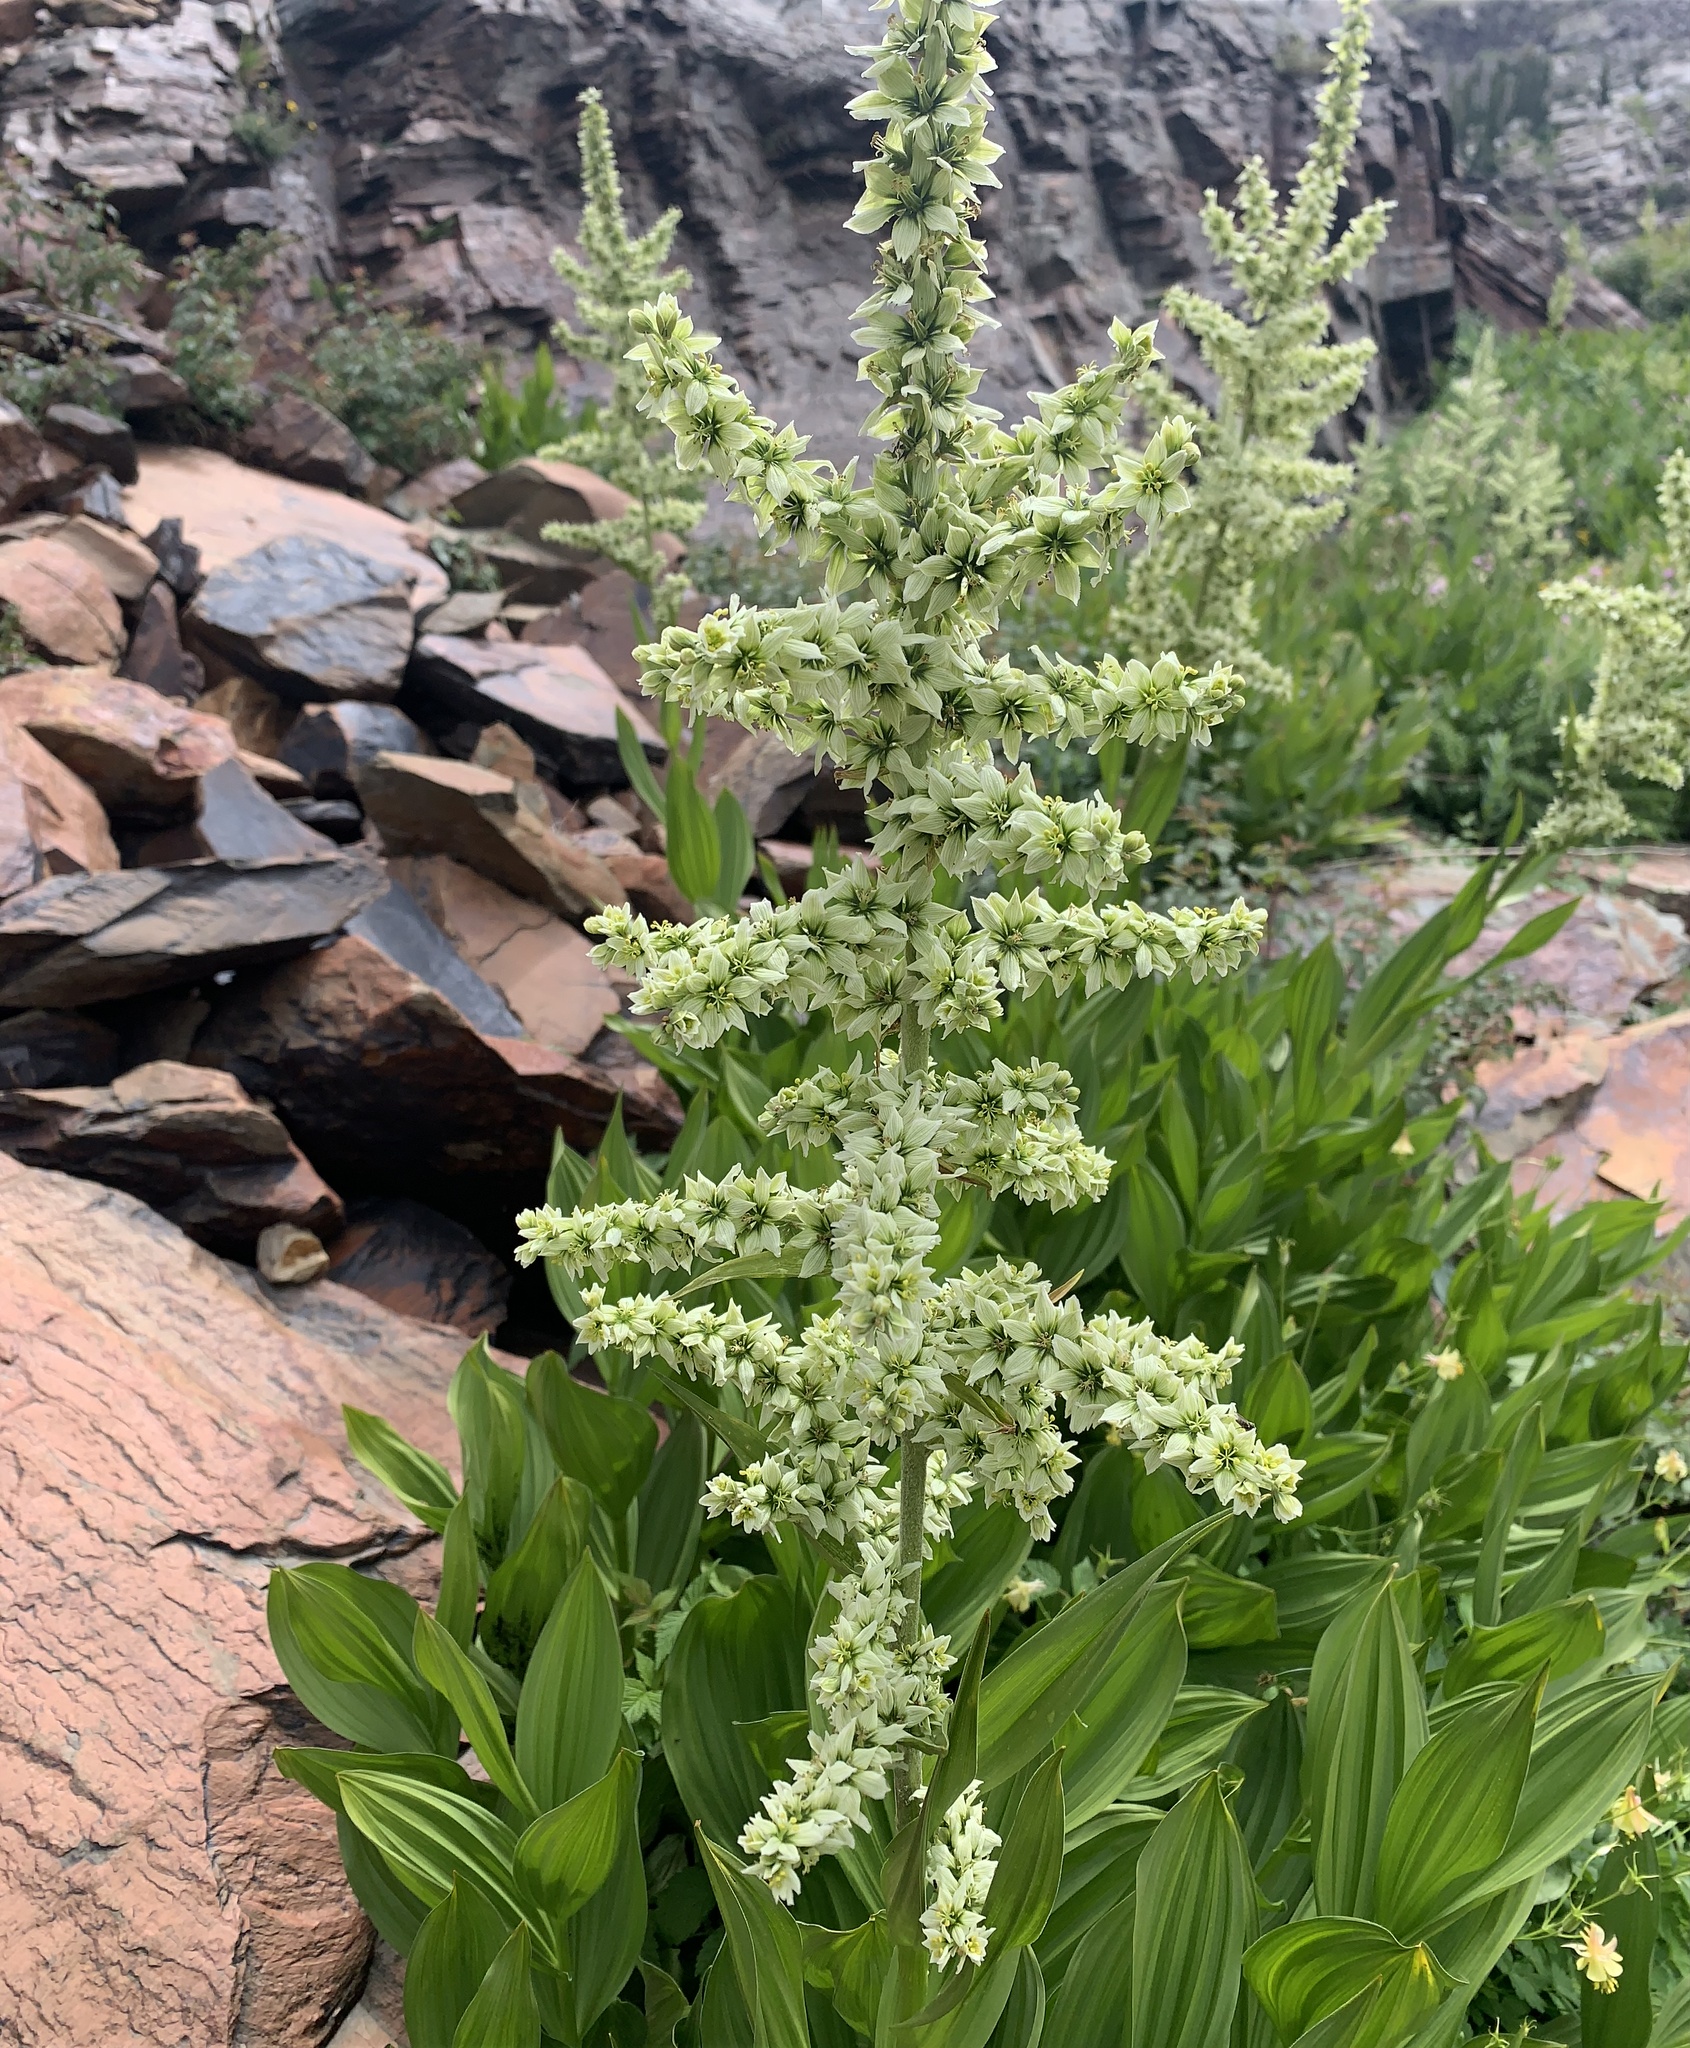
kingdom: Plantae
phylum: Tracheophyta
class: Liliopsida
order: Liliales
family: Melanthiaceae
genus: Veratrum
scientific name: Veratrum californicum
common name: California veratrum
